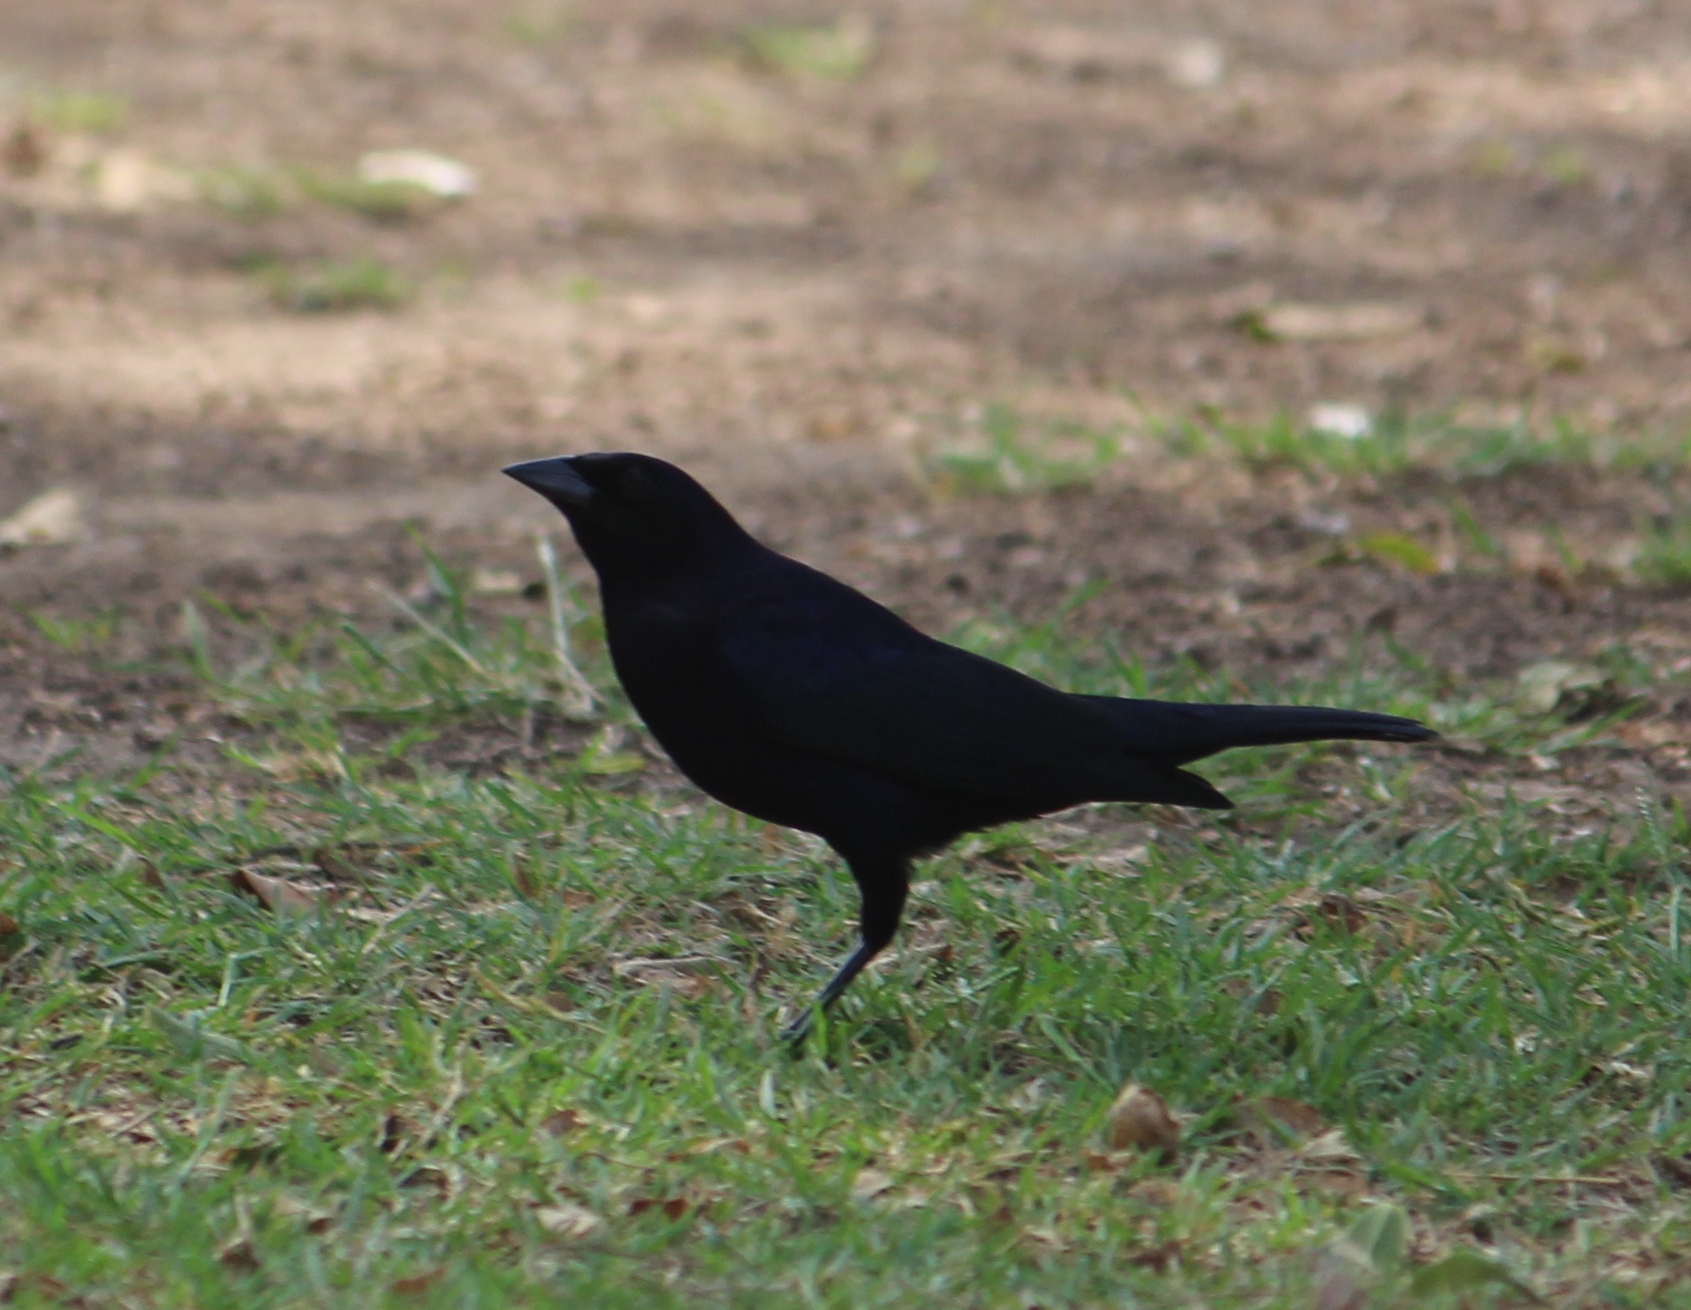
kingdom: Animalia
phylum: Chordata
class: Aves
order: Passeriformes
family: Icteridae
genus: Molothrus
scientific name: Molothrus bonariensis
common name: Shiny cowbird
